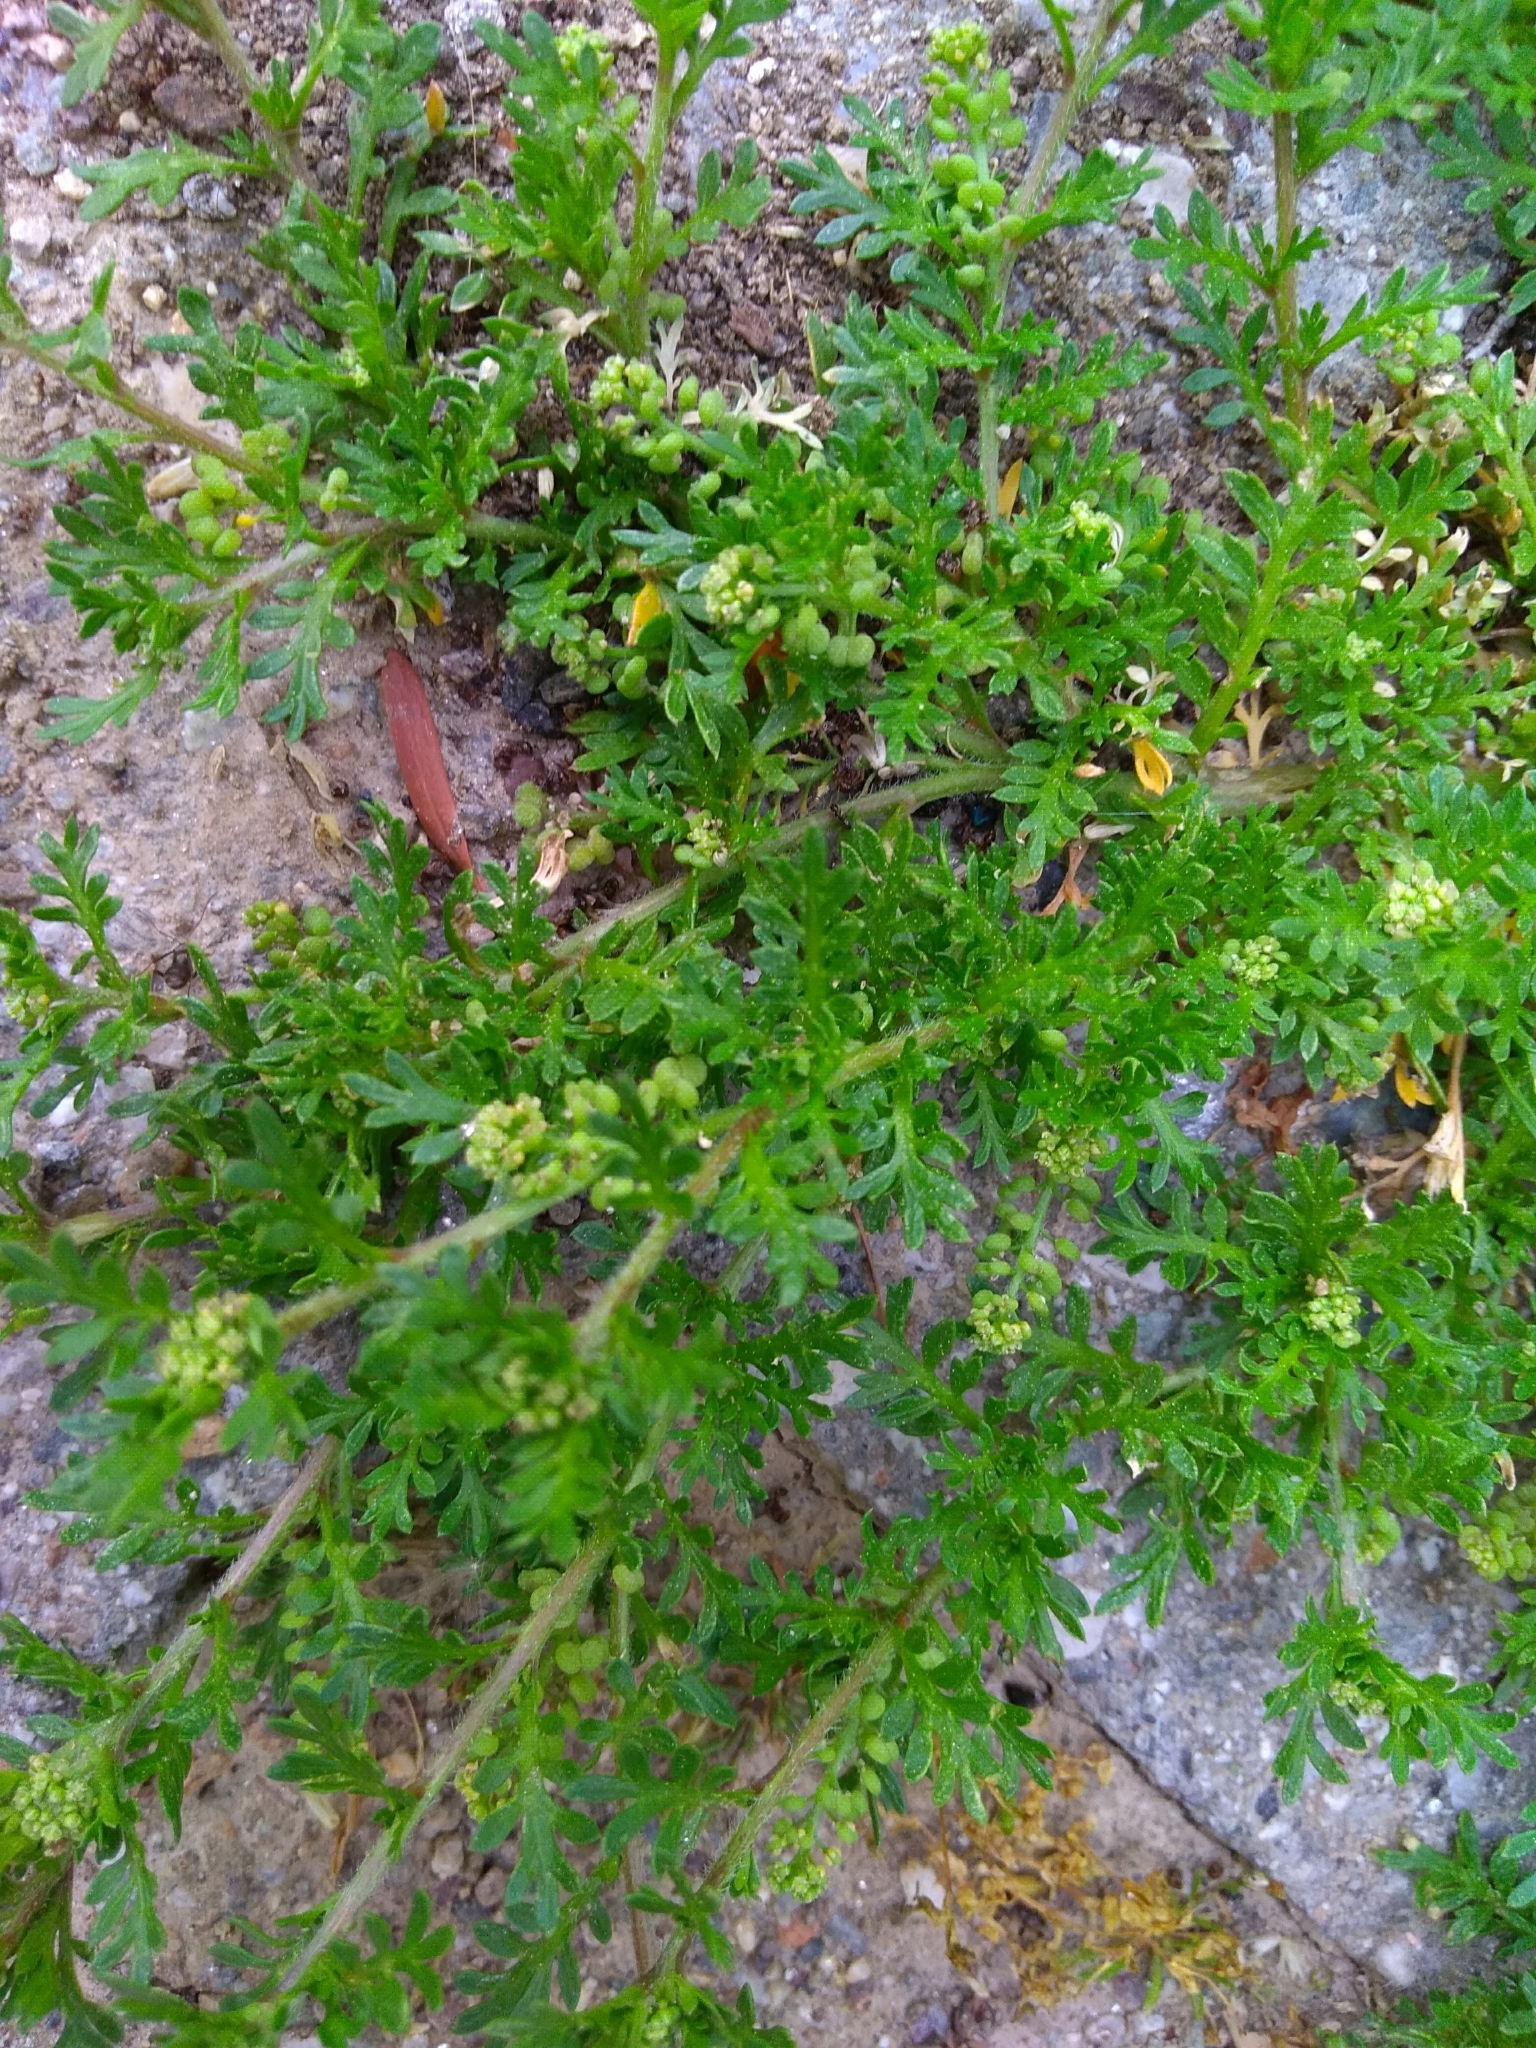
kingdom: Plantae
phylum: Tracheophyta
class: Magnoliopsida
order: Brassicales
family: Brassicaceae
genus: Lepidium
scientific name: Lepidium didymum
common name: Lesser swinecress
